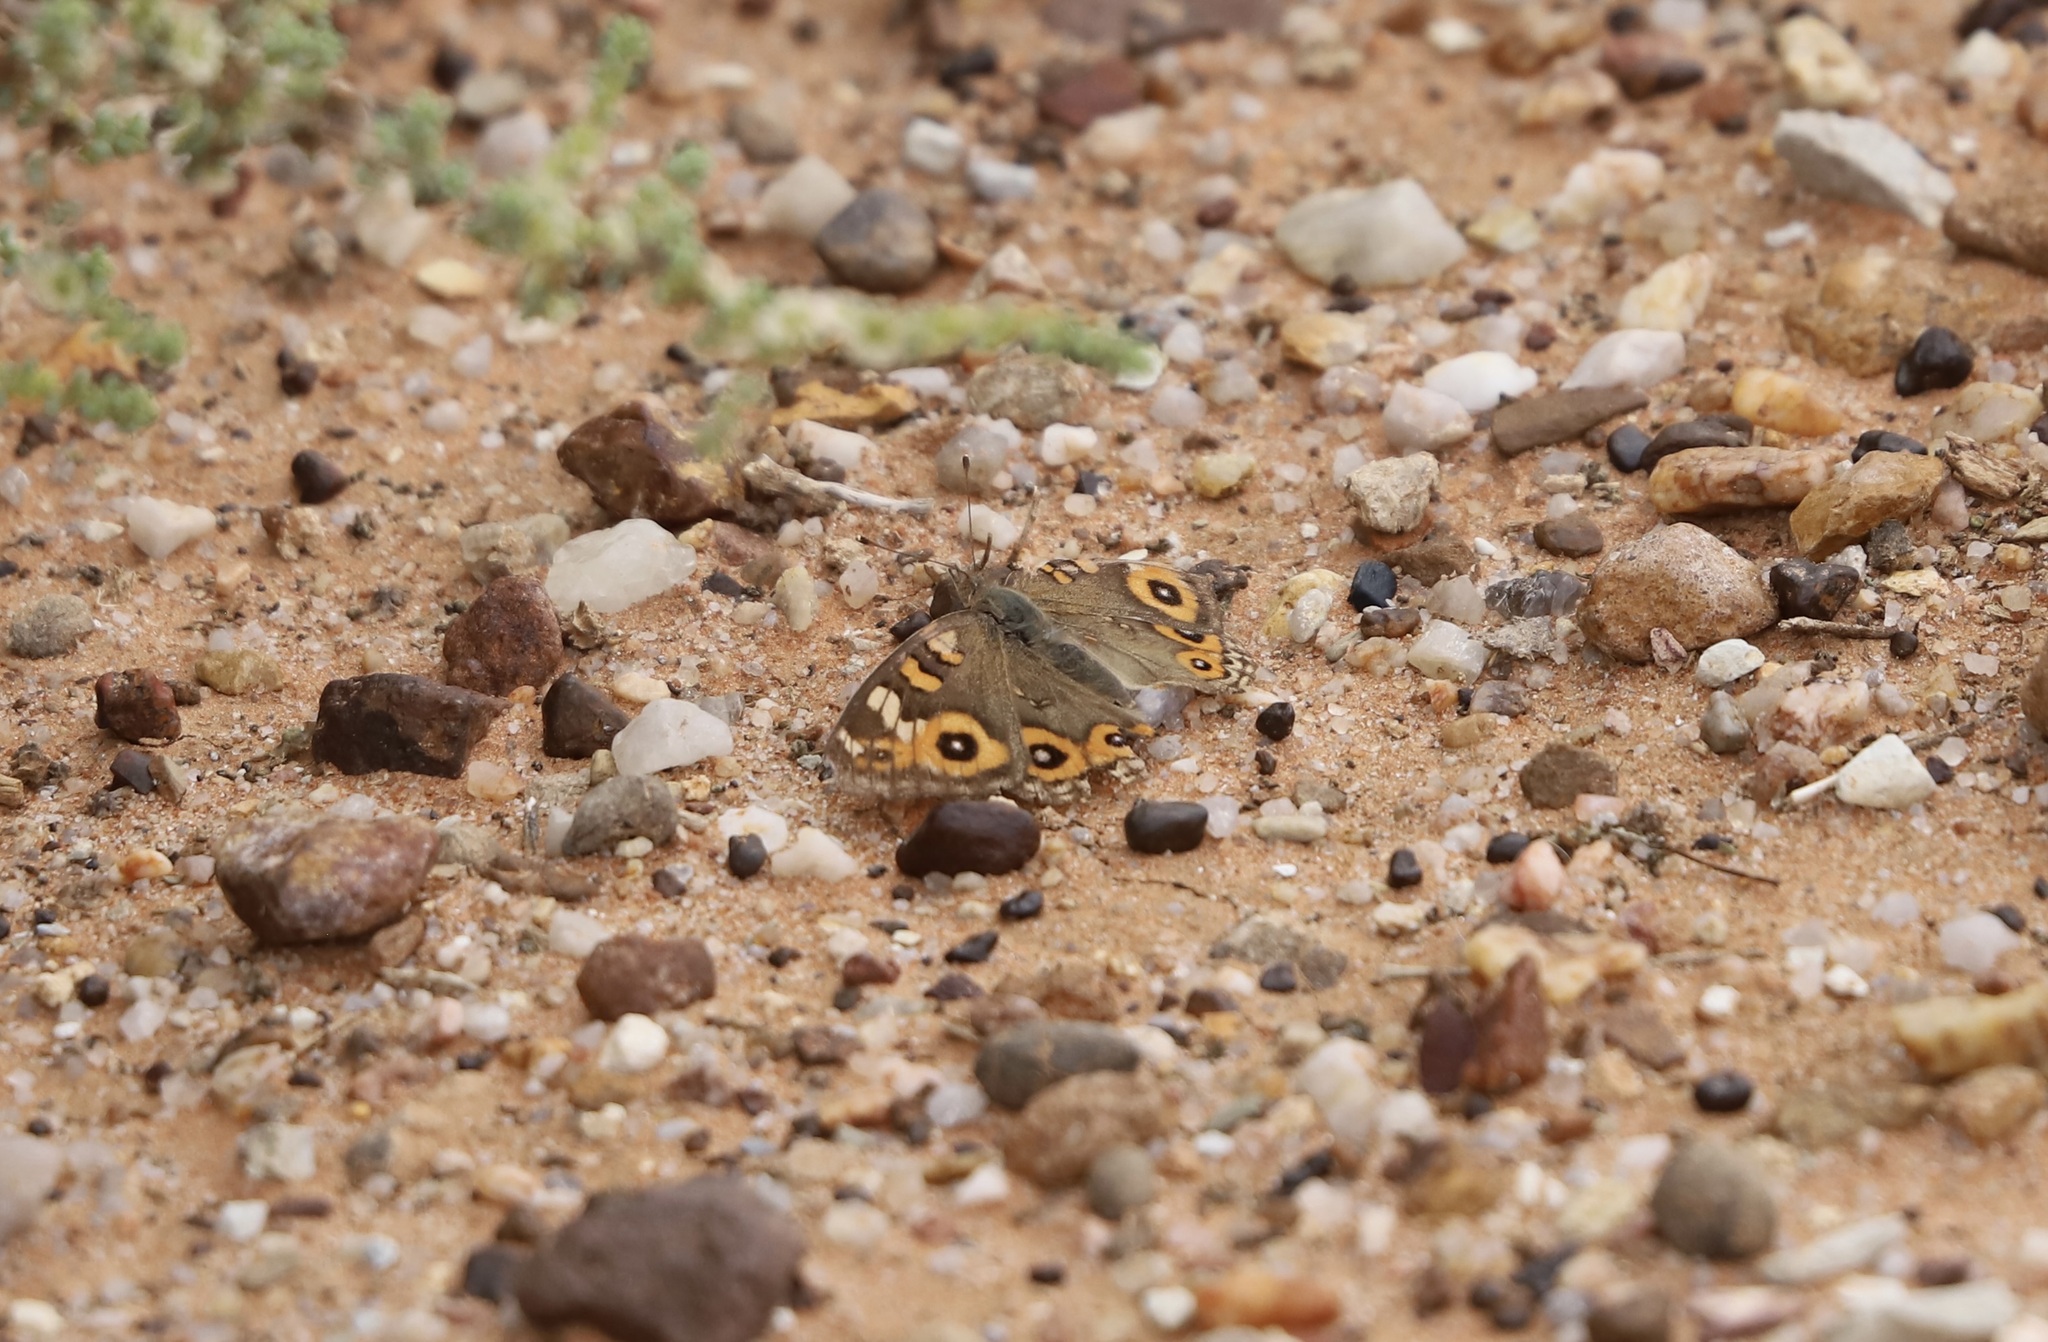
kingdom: Animalia
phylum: Arthropoda
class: Insecta
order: Lepidoptera
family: Nymphalidae
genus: Junonia
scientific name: Junonia villida
